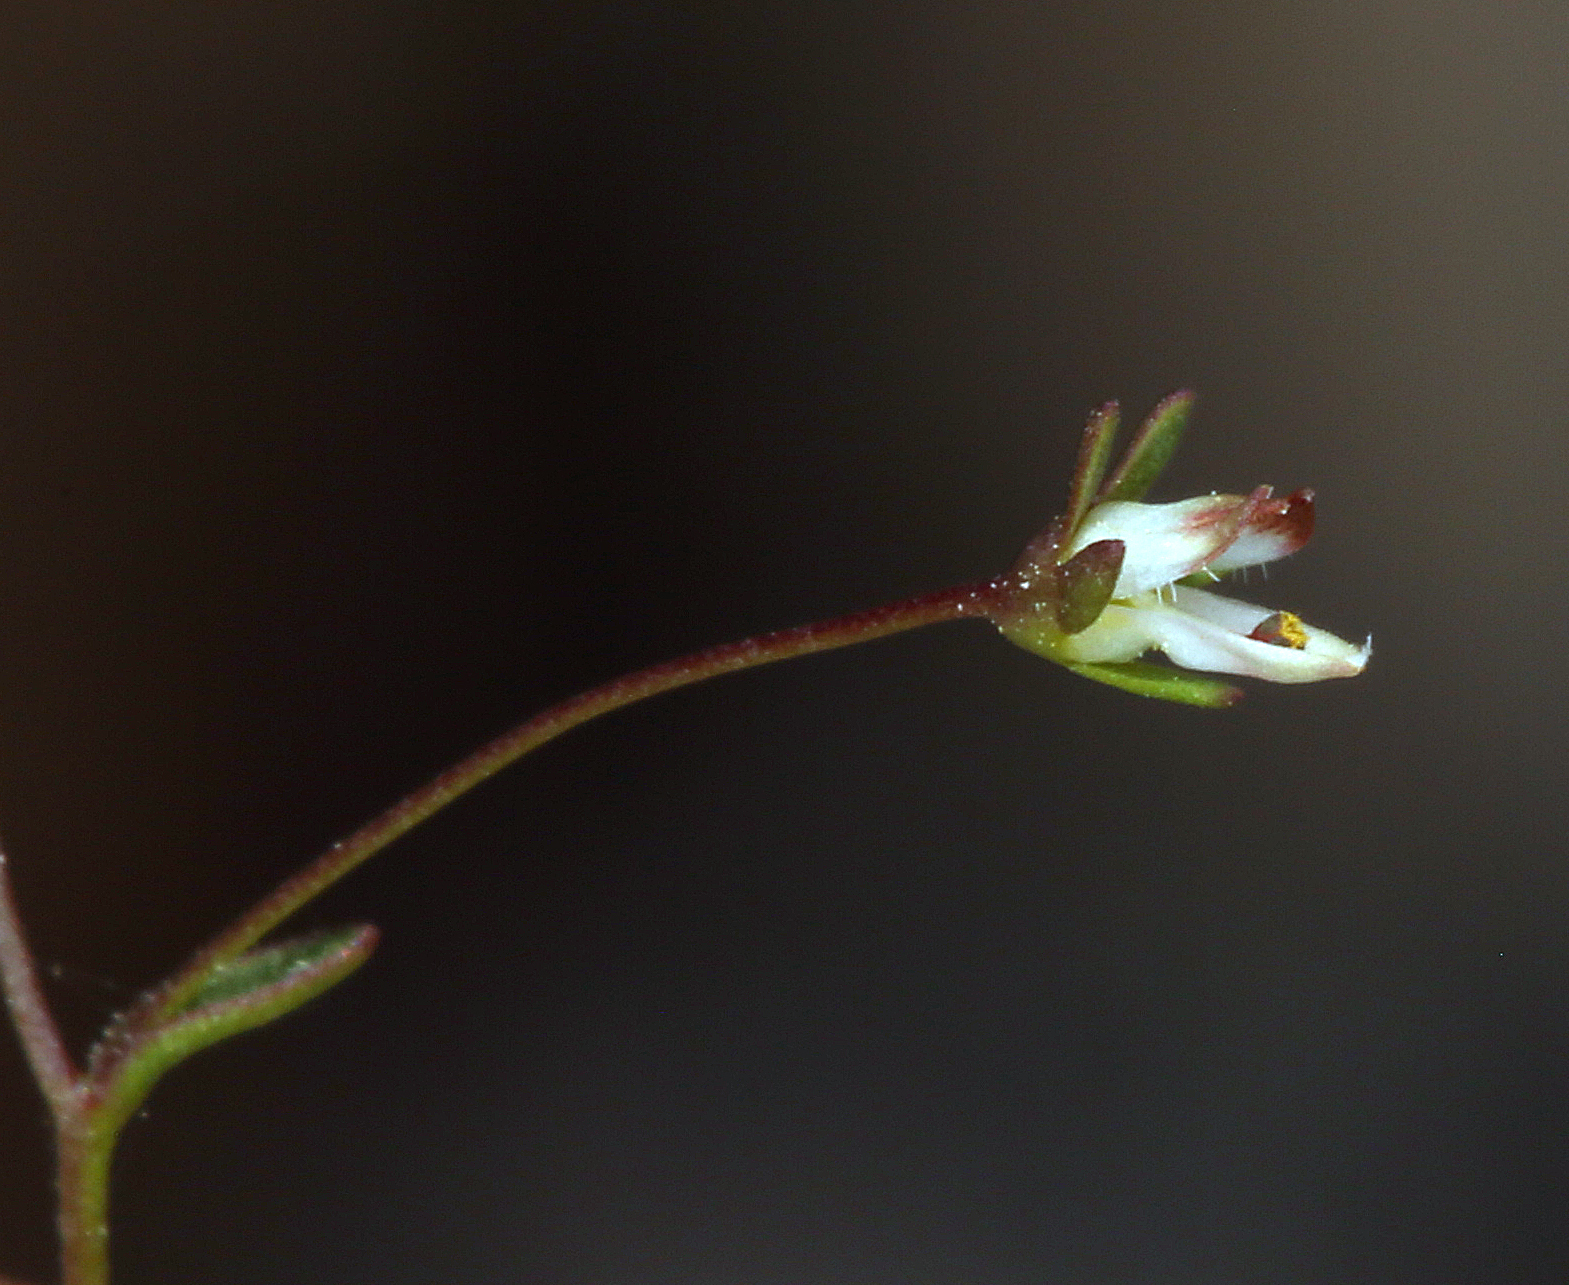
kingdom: Plantae
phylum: Tracheophyta
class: Magnoliopsida
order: Asterales
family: Campanulaceae
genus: Nemacladus
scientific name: Nemacladus morefieldii
